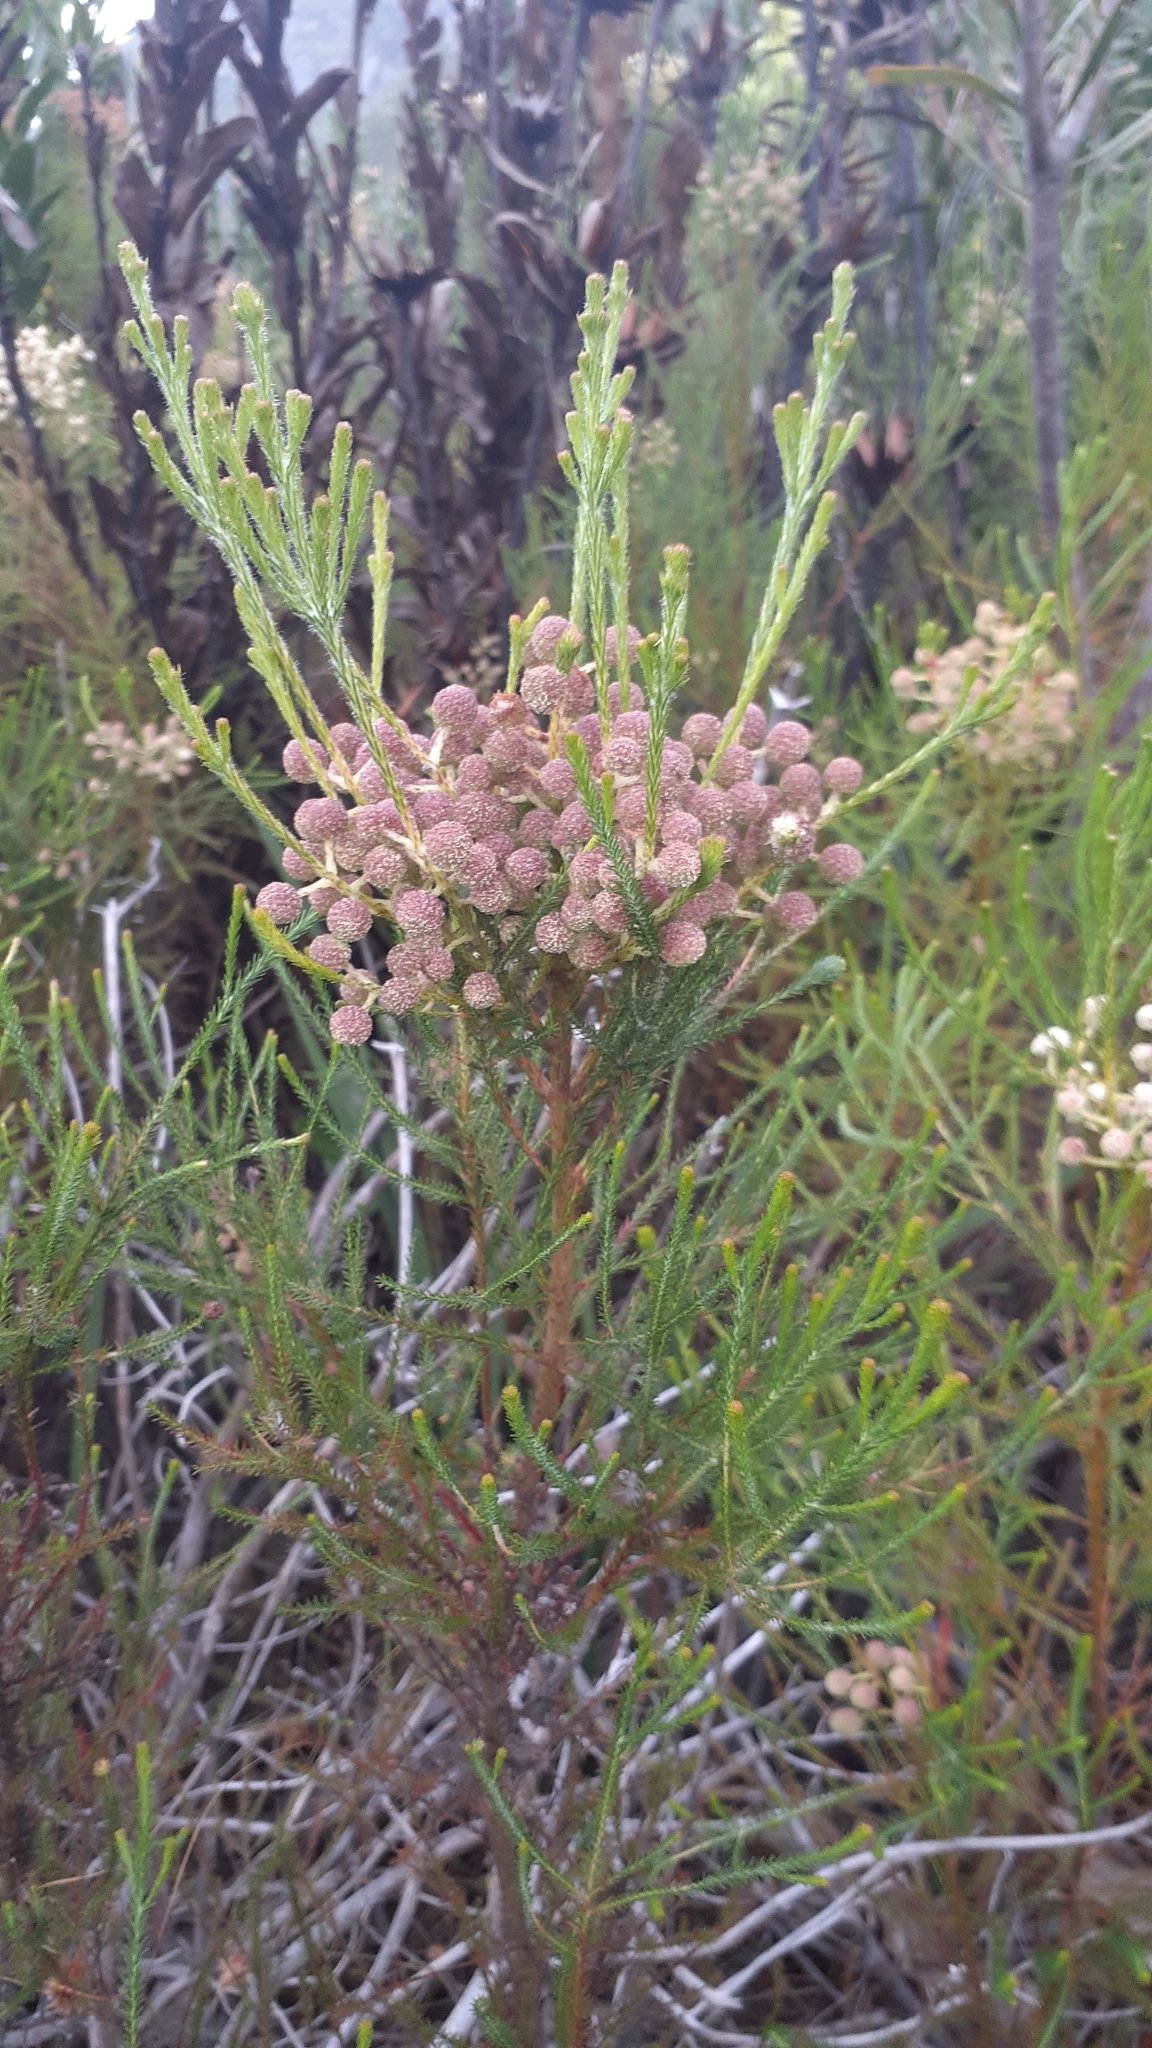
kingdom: Plantae
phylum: Tracheophyta
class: Magnoliopsida
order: Bruniales
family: Bruniaceae
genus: Berzelia
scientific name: Berzelia lanuginosa
